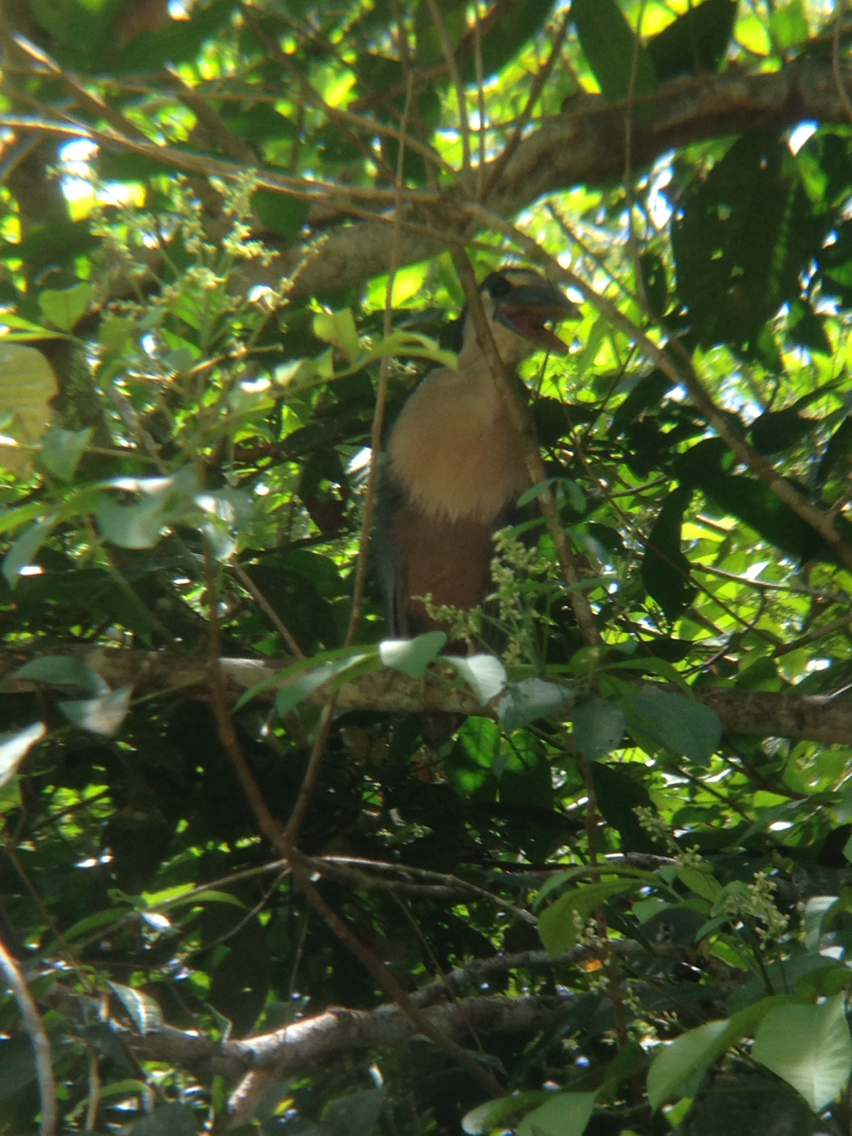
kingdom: Animalia
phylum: Chordata
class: Aves
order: Pelecaniformes
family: Ardeidae
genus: Cochlearius
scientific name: Cochlearius cochlearius
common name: Boat-billed heron
